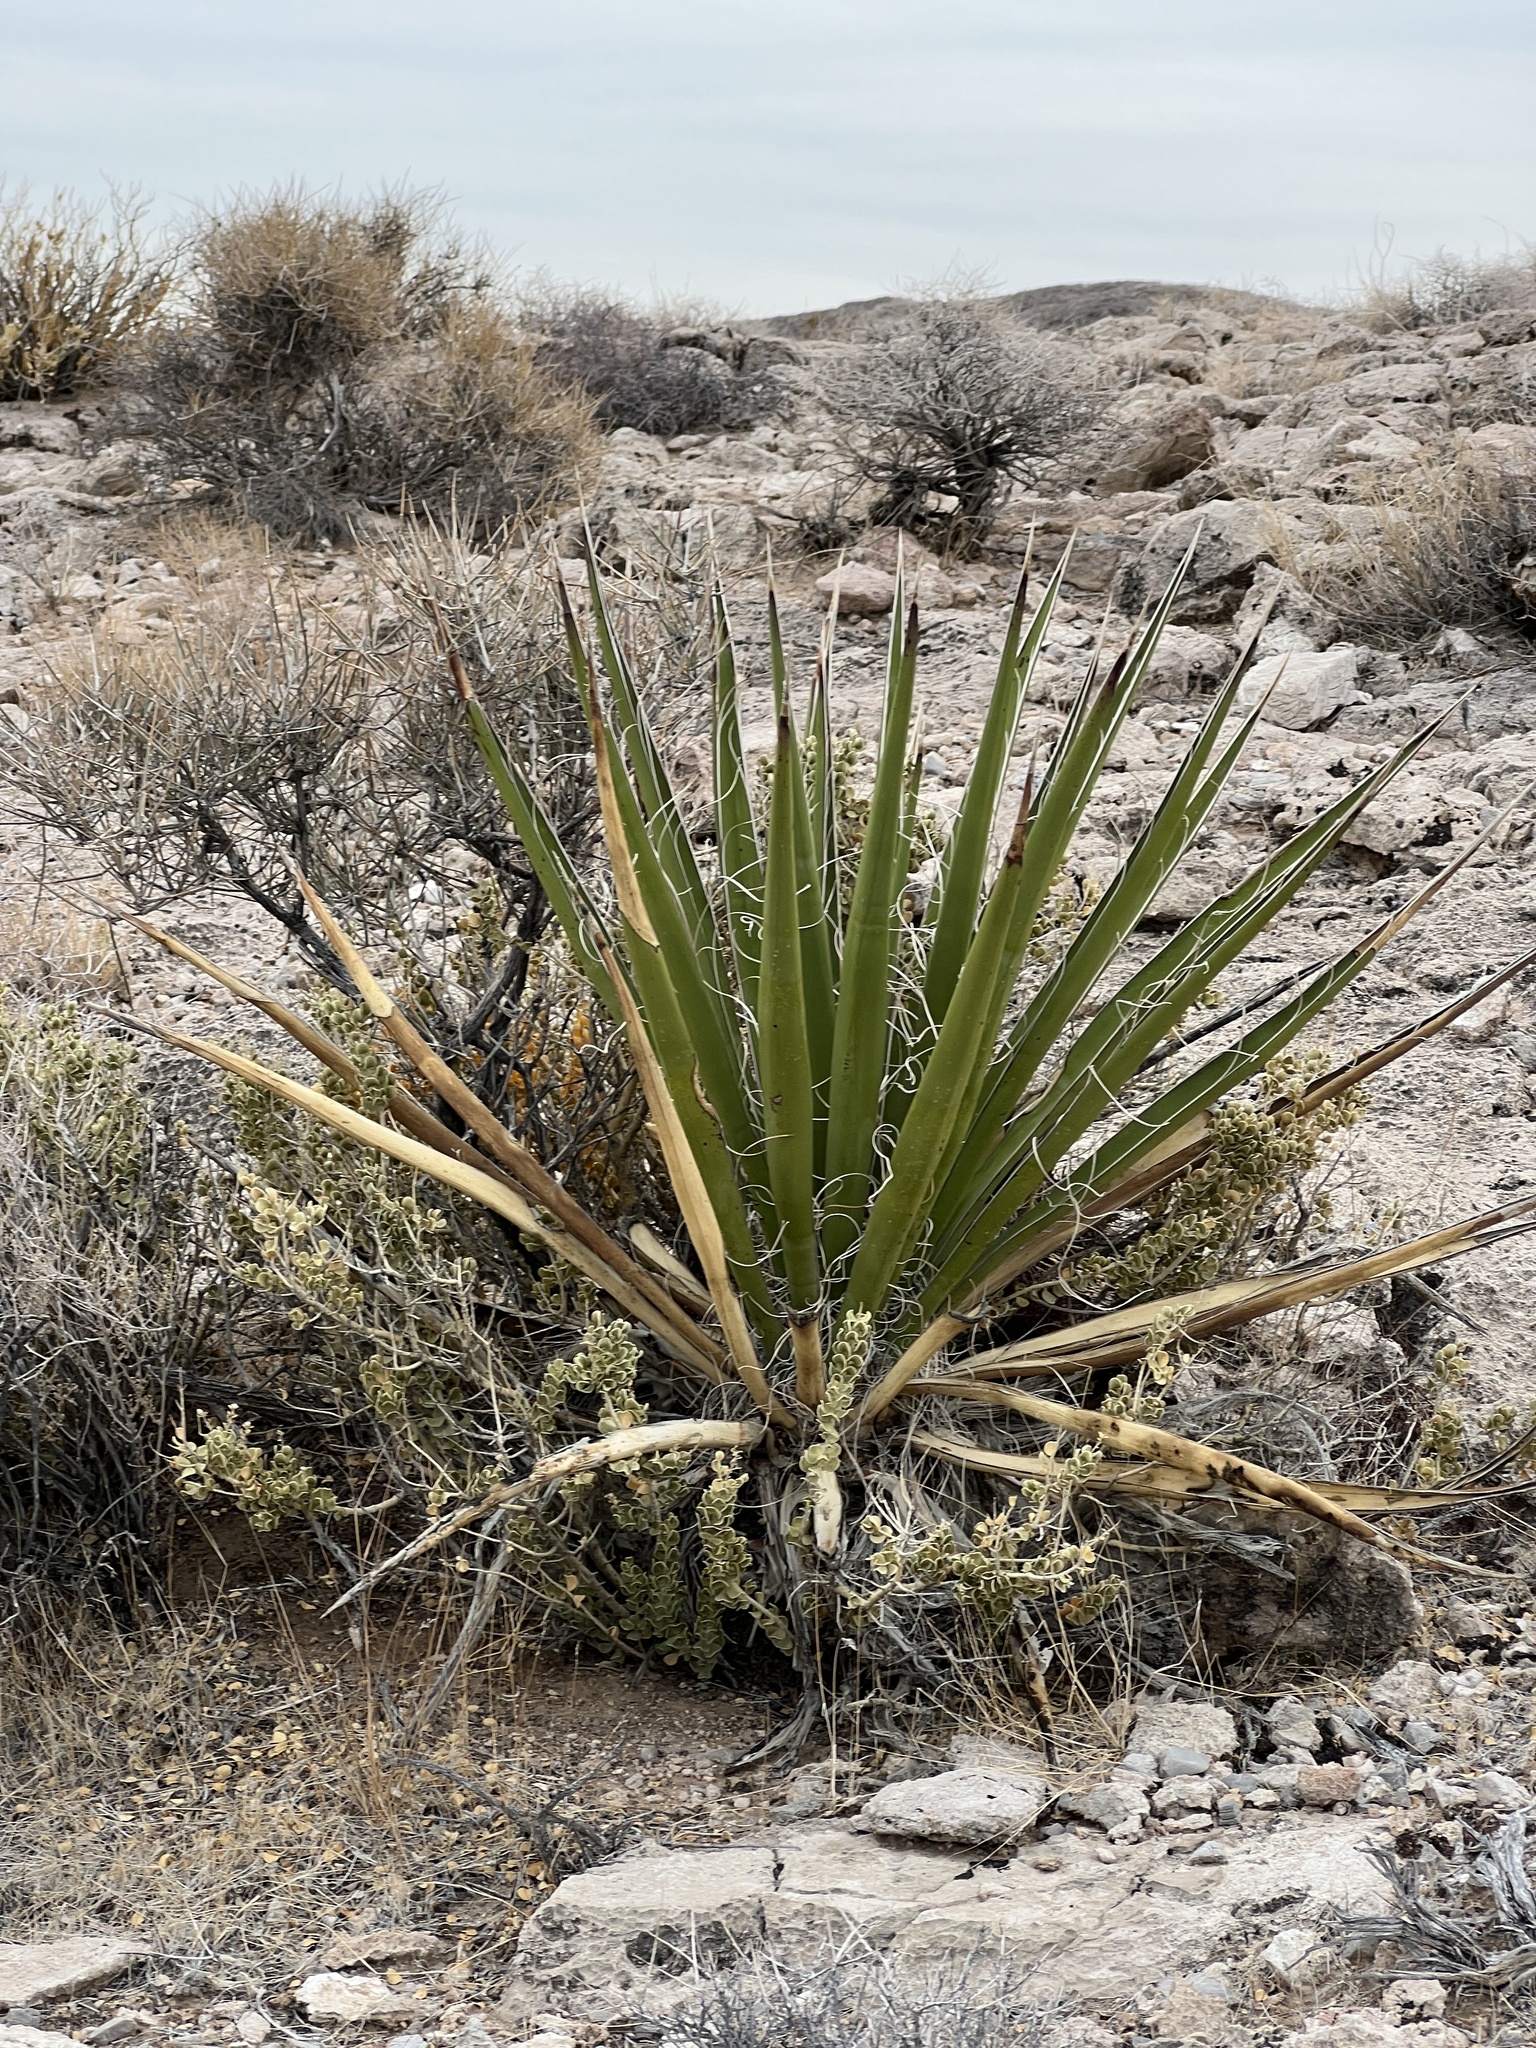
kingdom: Plantae
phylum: Tracheophyta
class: Liliopsida
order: Asparagales
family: Asparagaceae
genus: Yucca
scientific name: Yucca schidigera
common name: Mojave yucca
